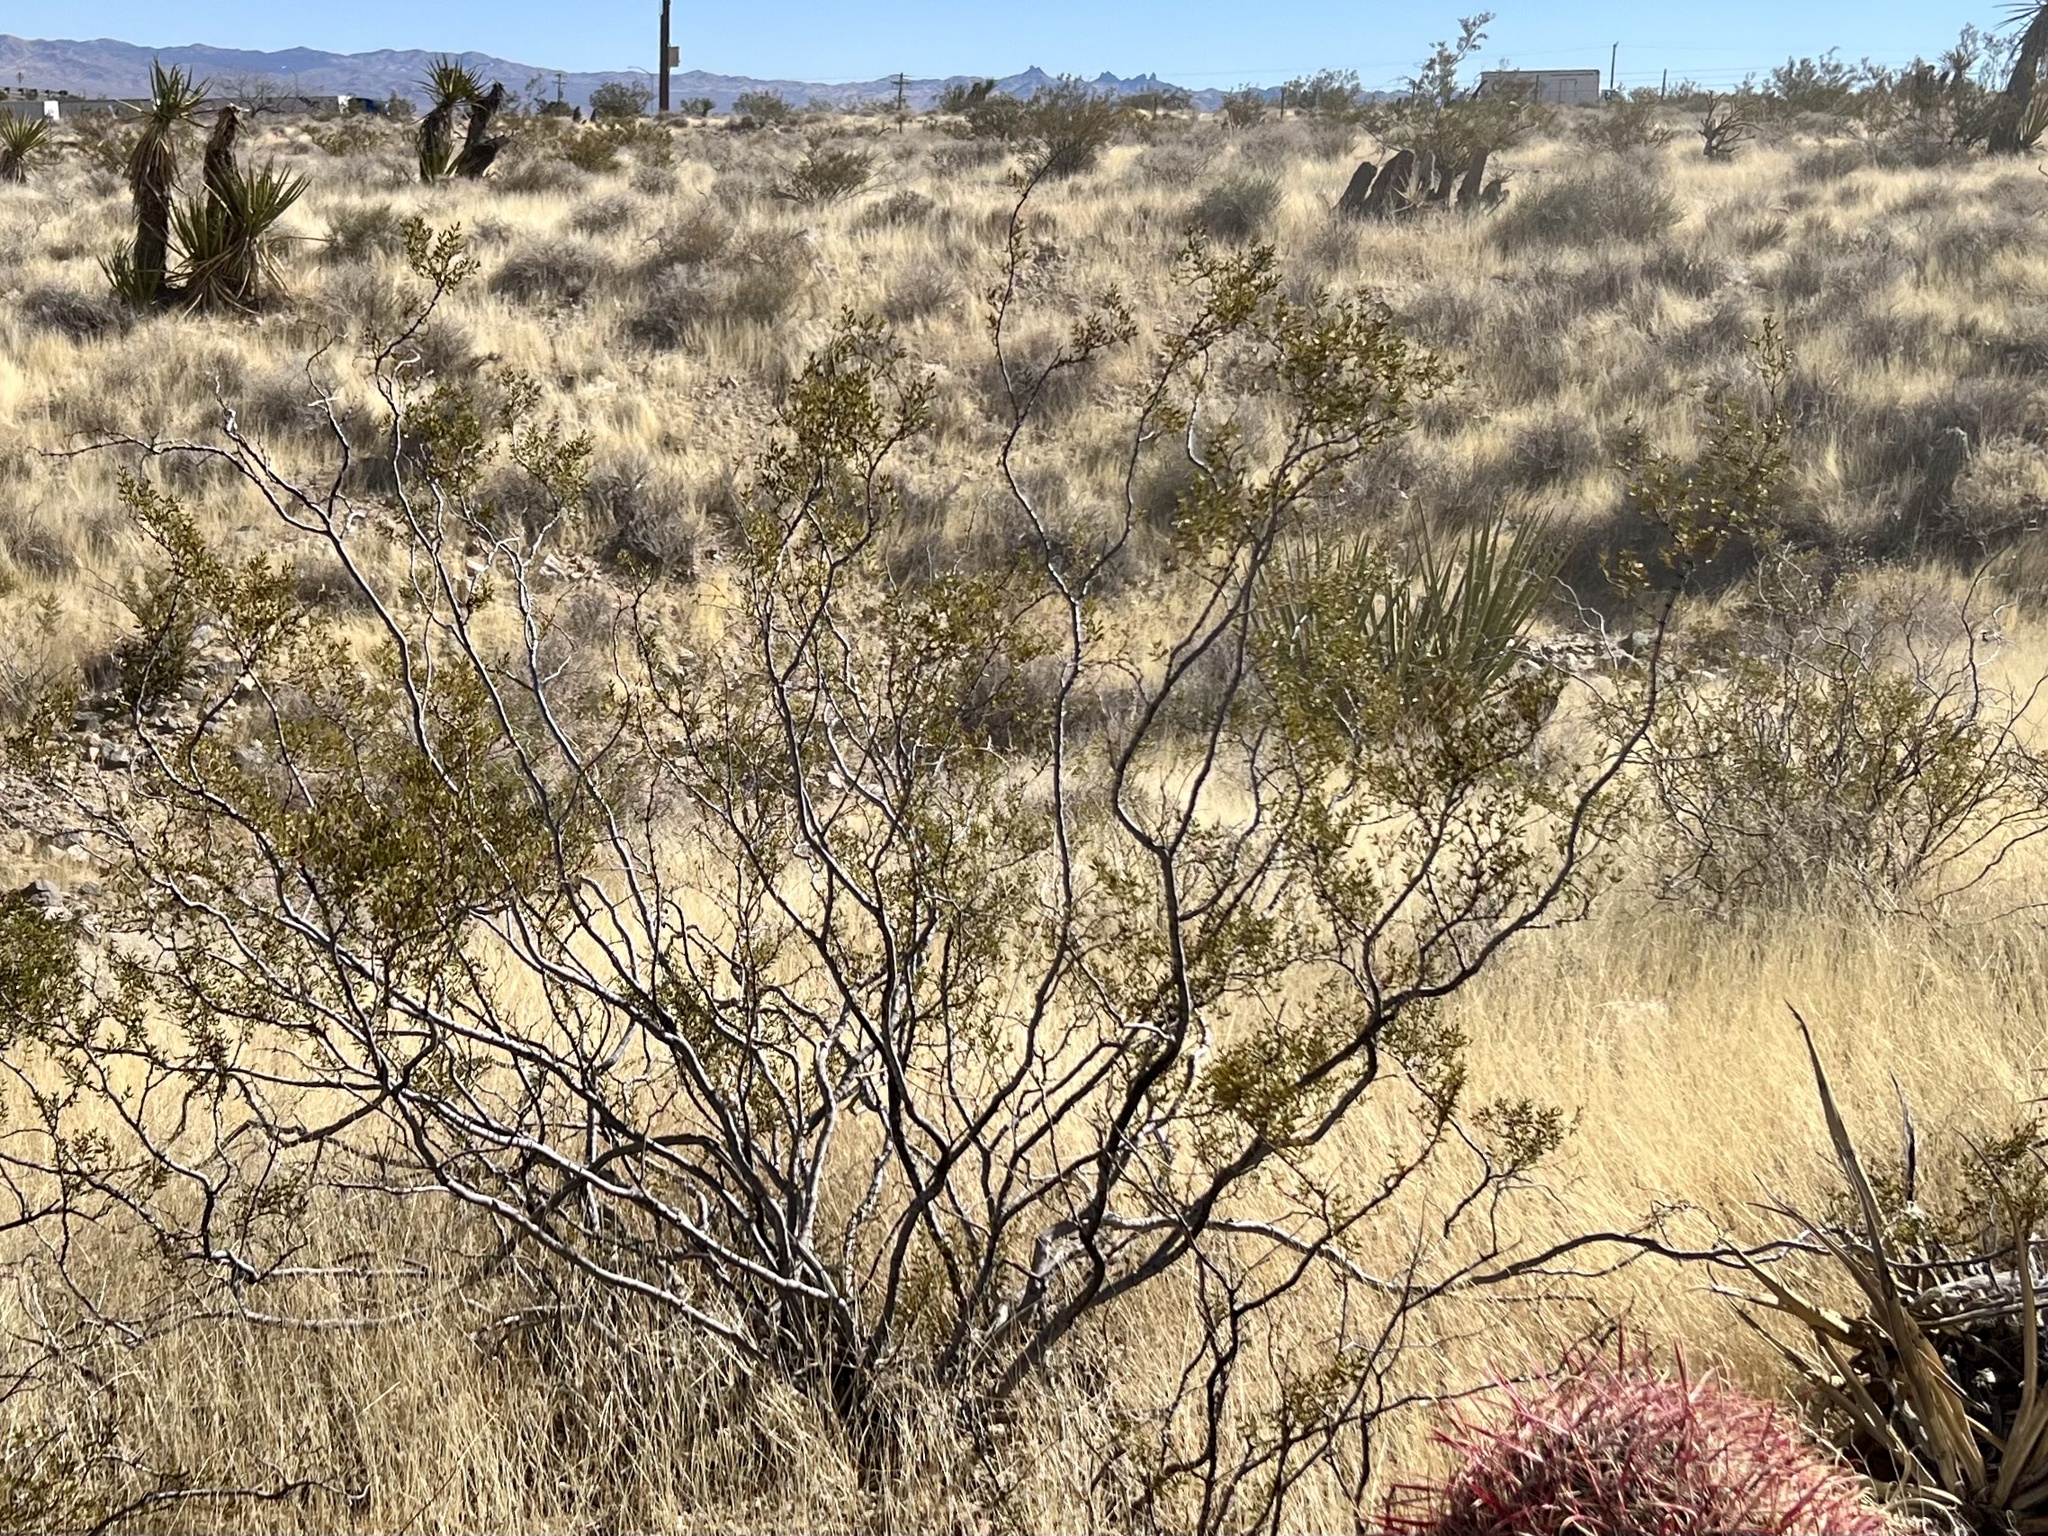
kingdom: Plantae
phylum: Tracheophyta
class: Magnoliopsida
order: Zygophyllales
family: Zygophyllaceae
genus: Larrea
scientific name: Larrea tridentata
